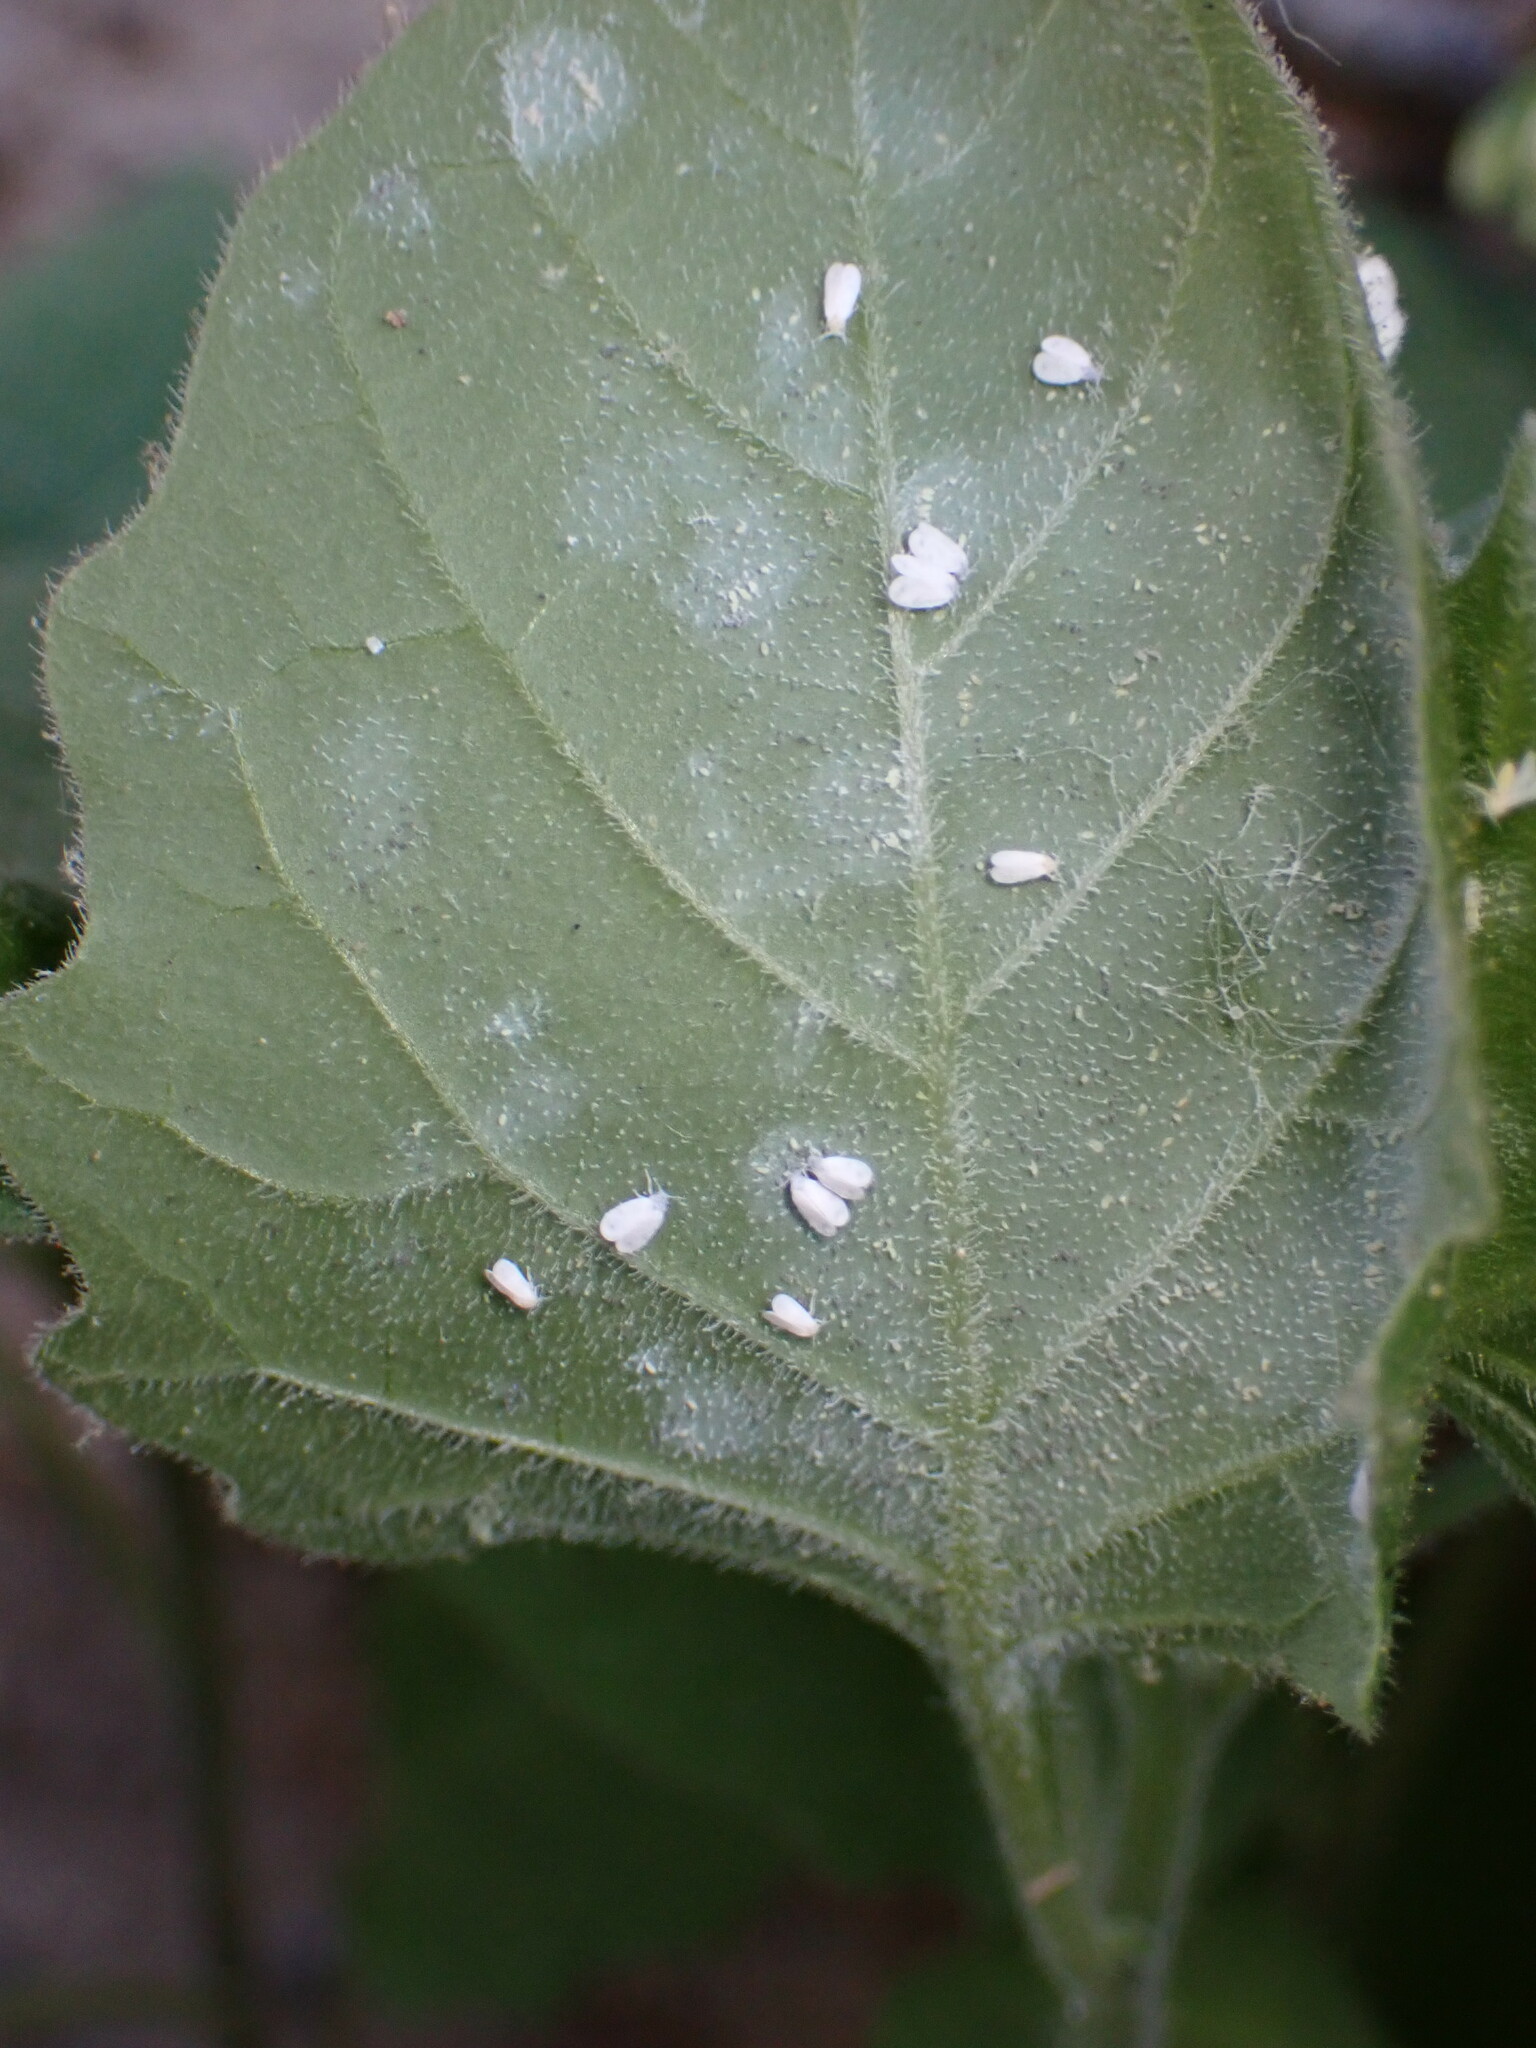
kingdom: Plantae
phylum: Tracheophyta
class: Magnoliopsida
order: Solanales
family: Solanaceae
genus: Solanum
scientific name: Solanum nigrum
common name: Black nightshade
